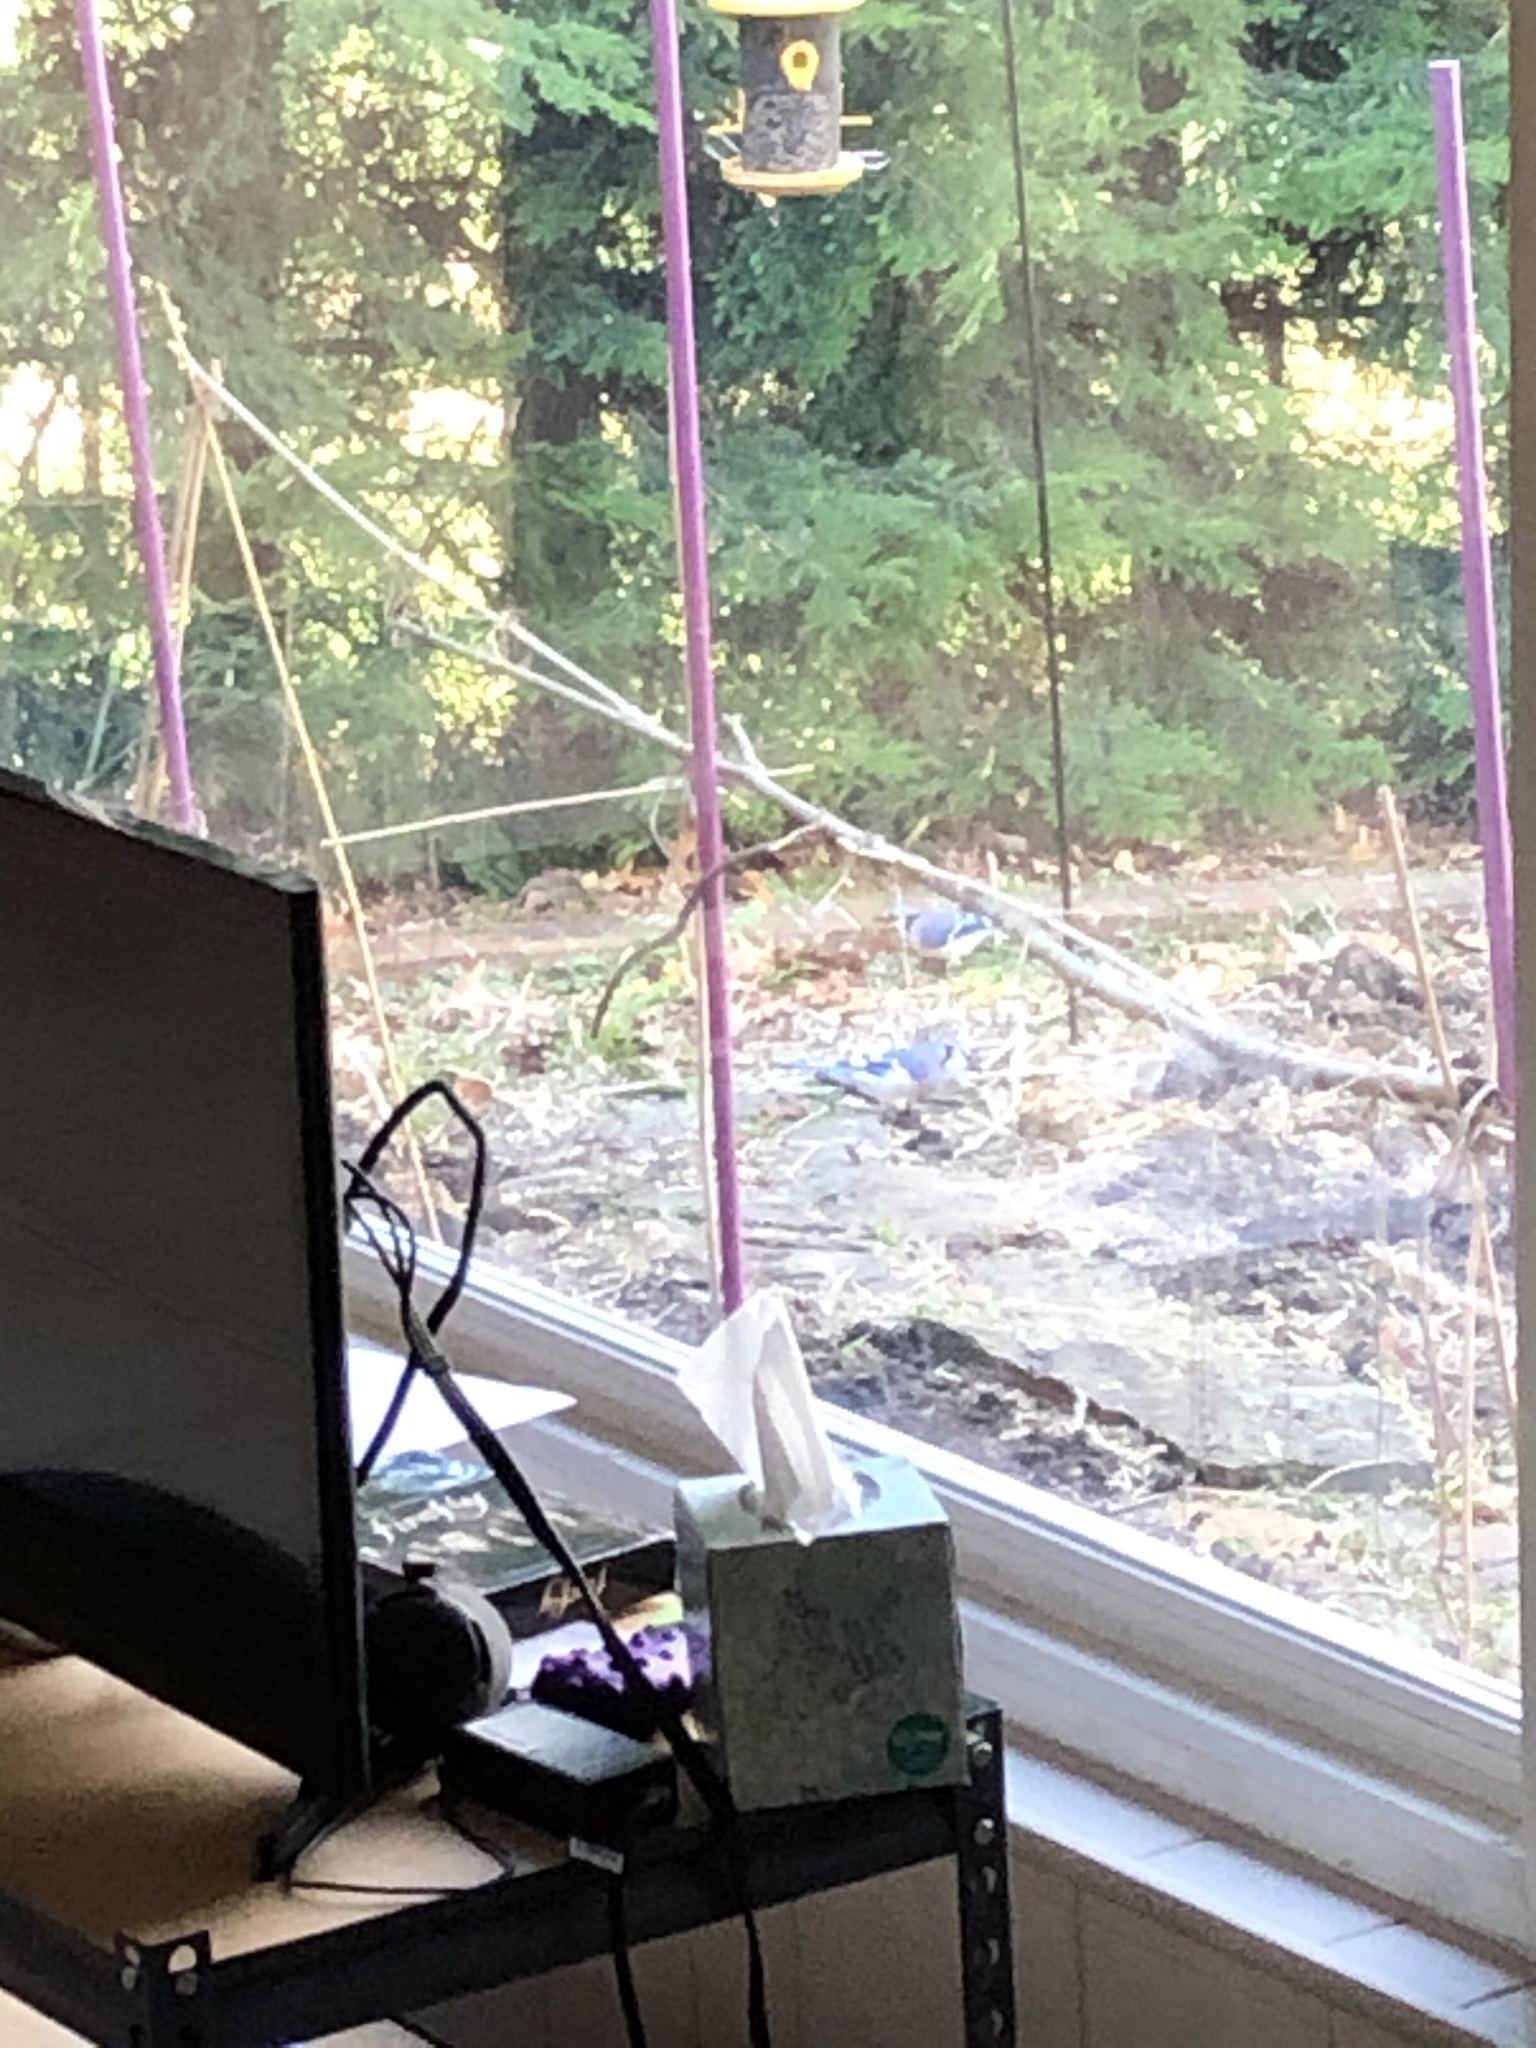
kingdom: Animalia
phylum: Chordata
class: Aves
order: Passeriformes
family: Corvidae
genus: Cyanocitta
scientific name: Cyanocitta cristata
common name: Blue jay
